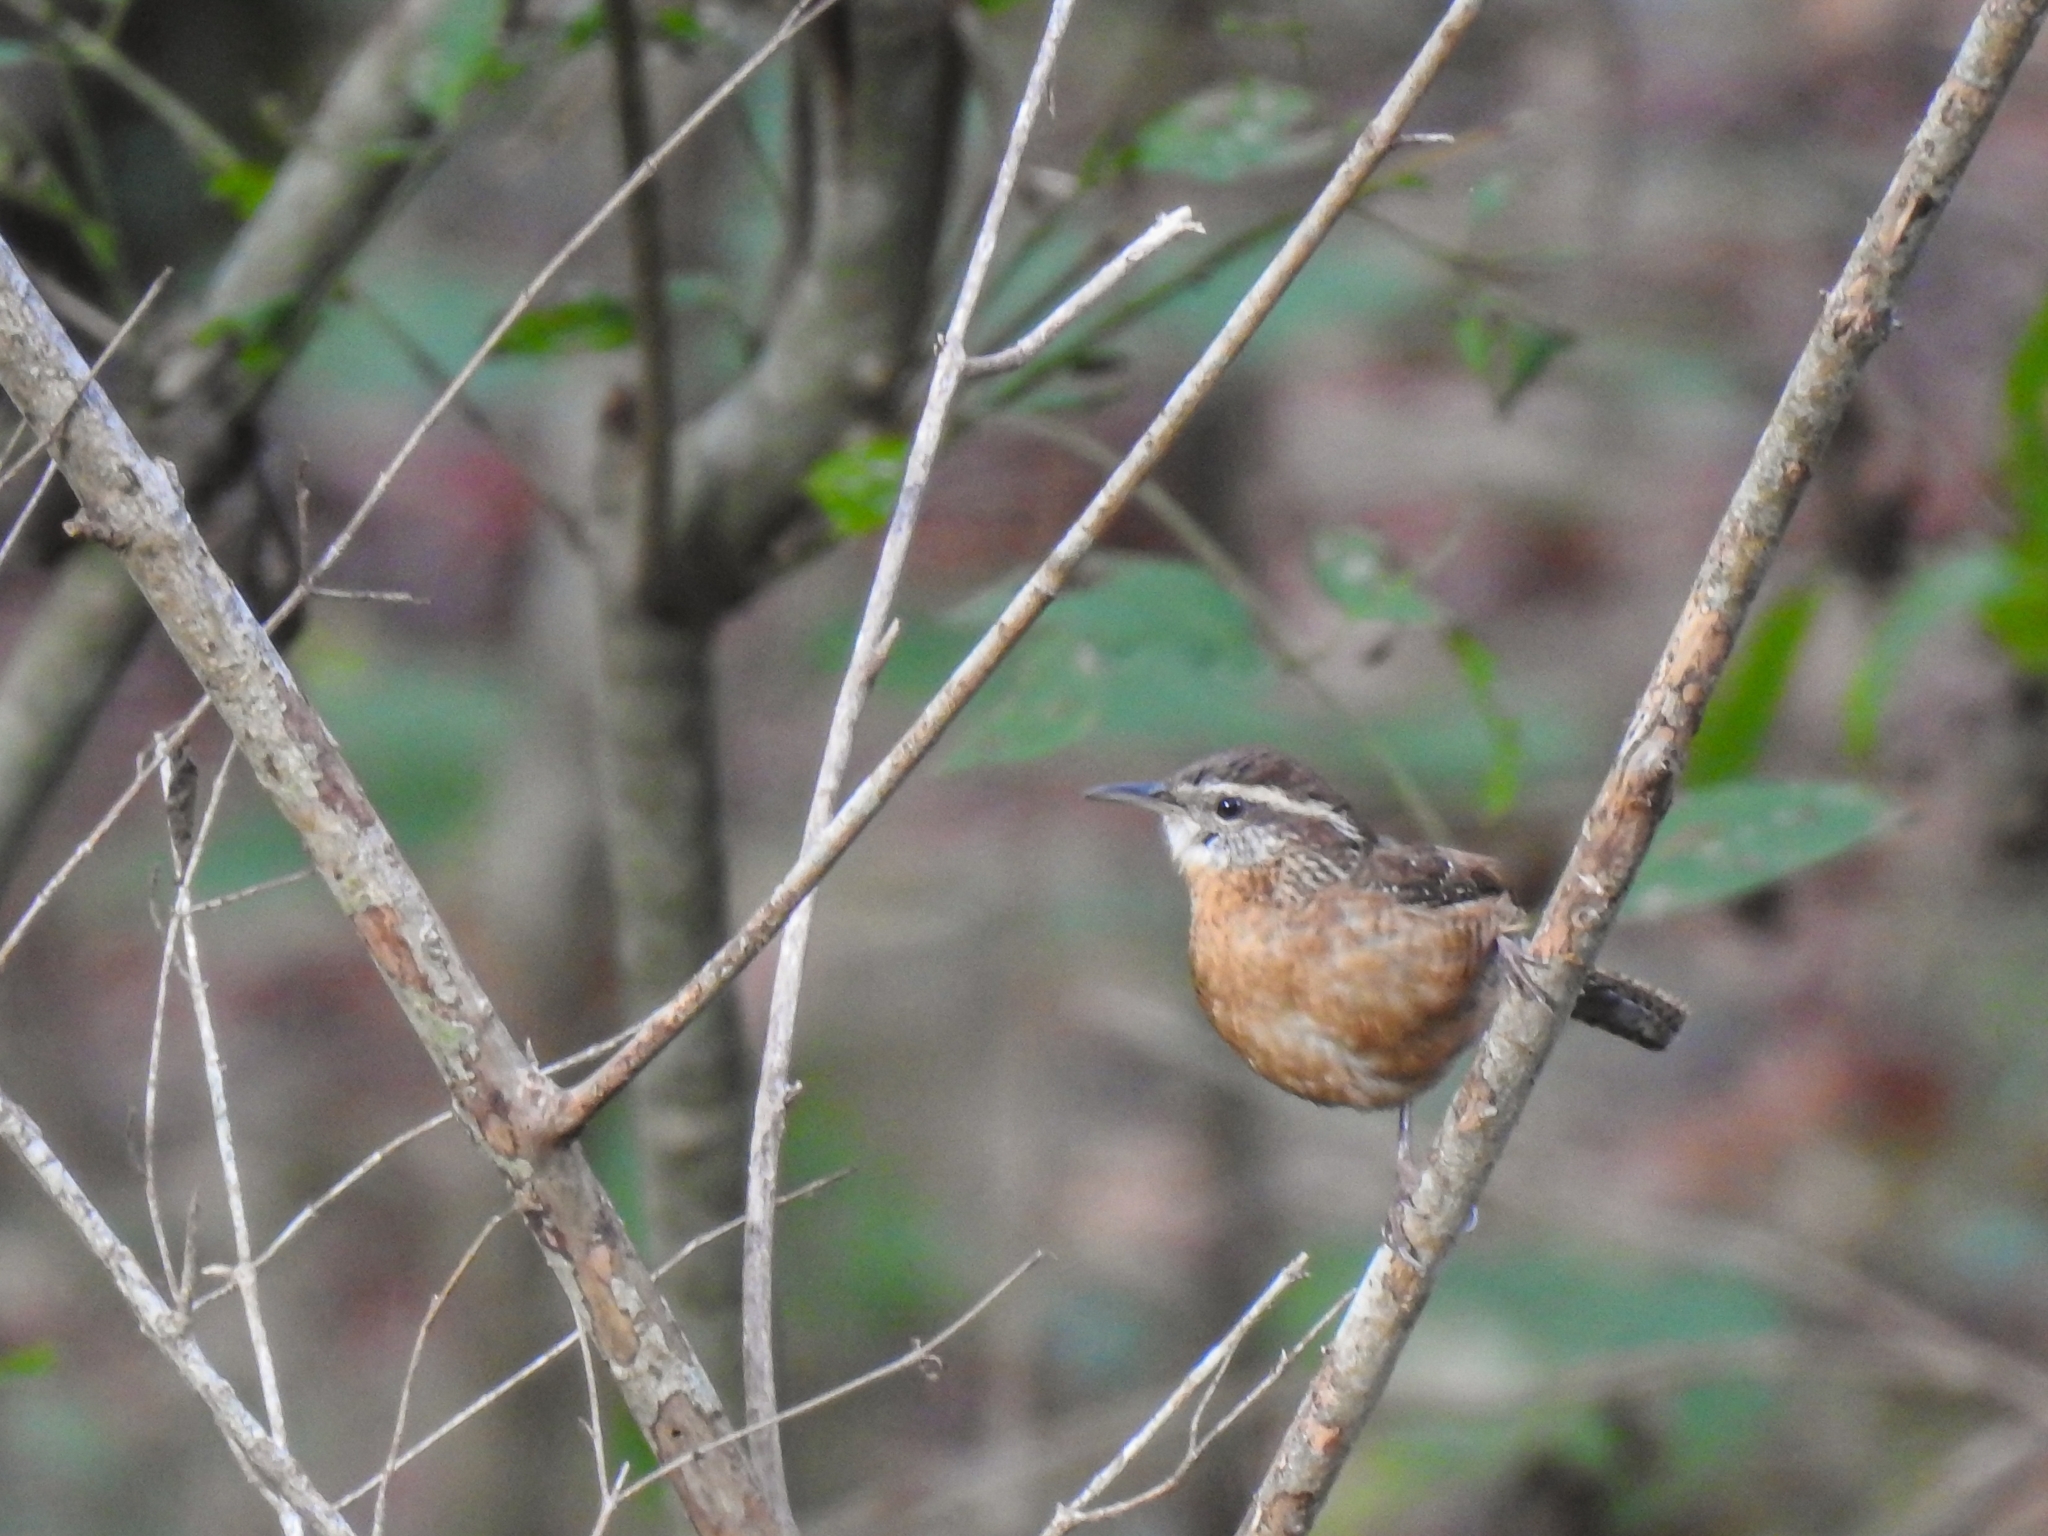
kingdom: Animalia
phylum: Chordata
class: Aves
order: Passeriformes
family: Troglodytidae
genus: Thryothorus
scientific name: Thryothorus ludovicianus
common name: Carolina wren
